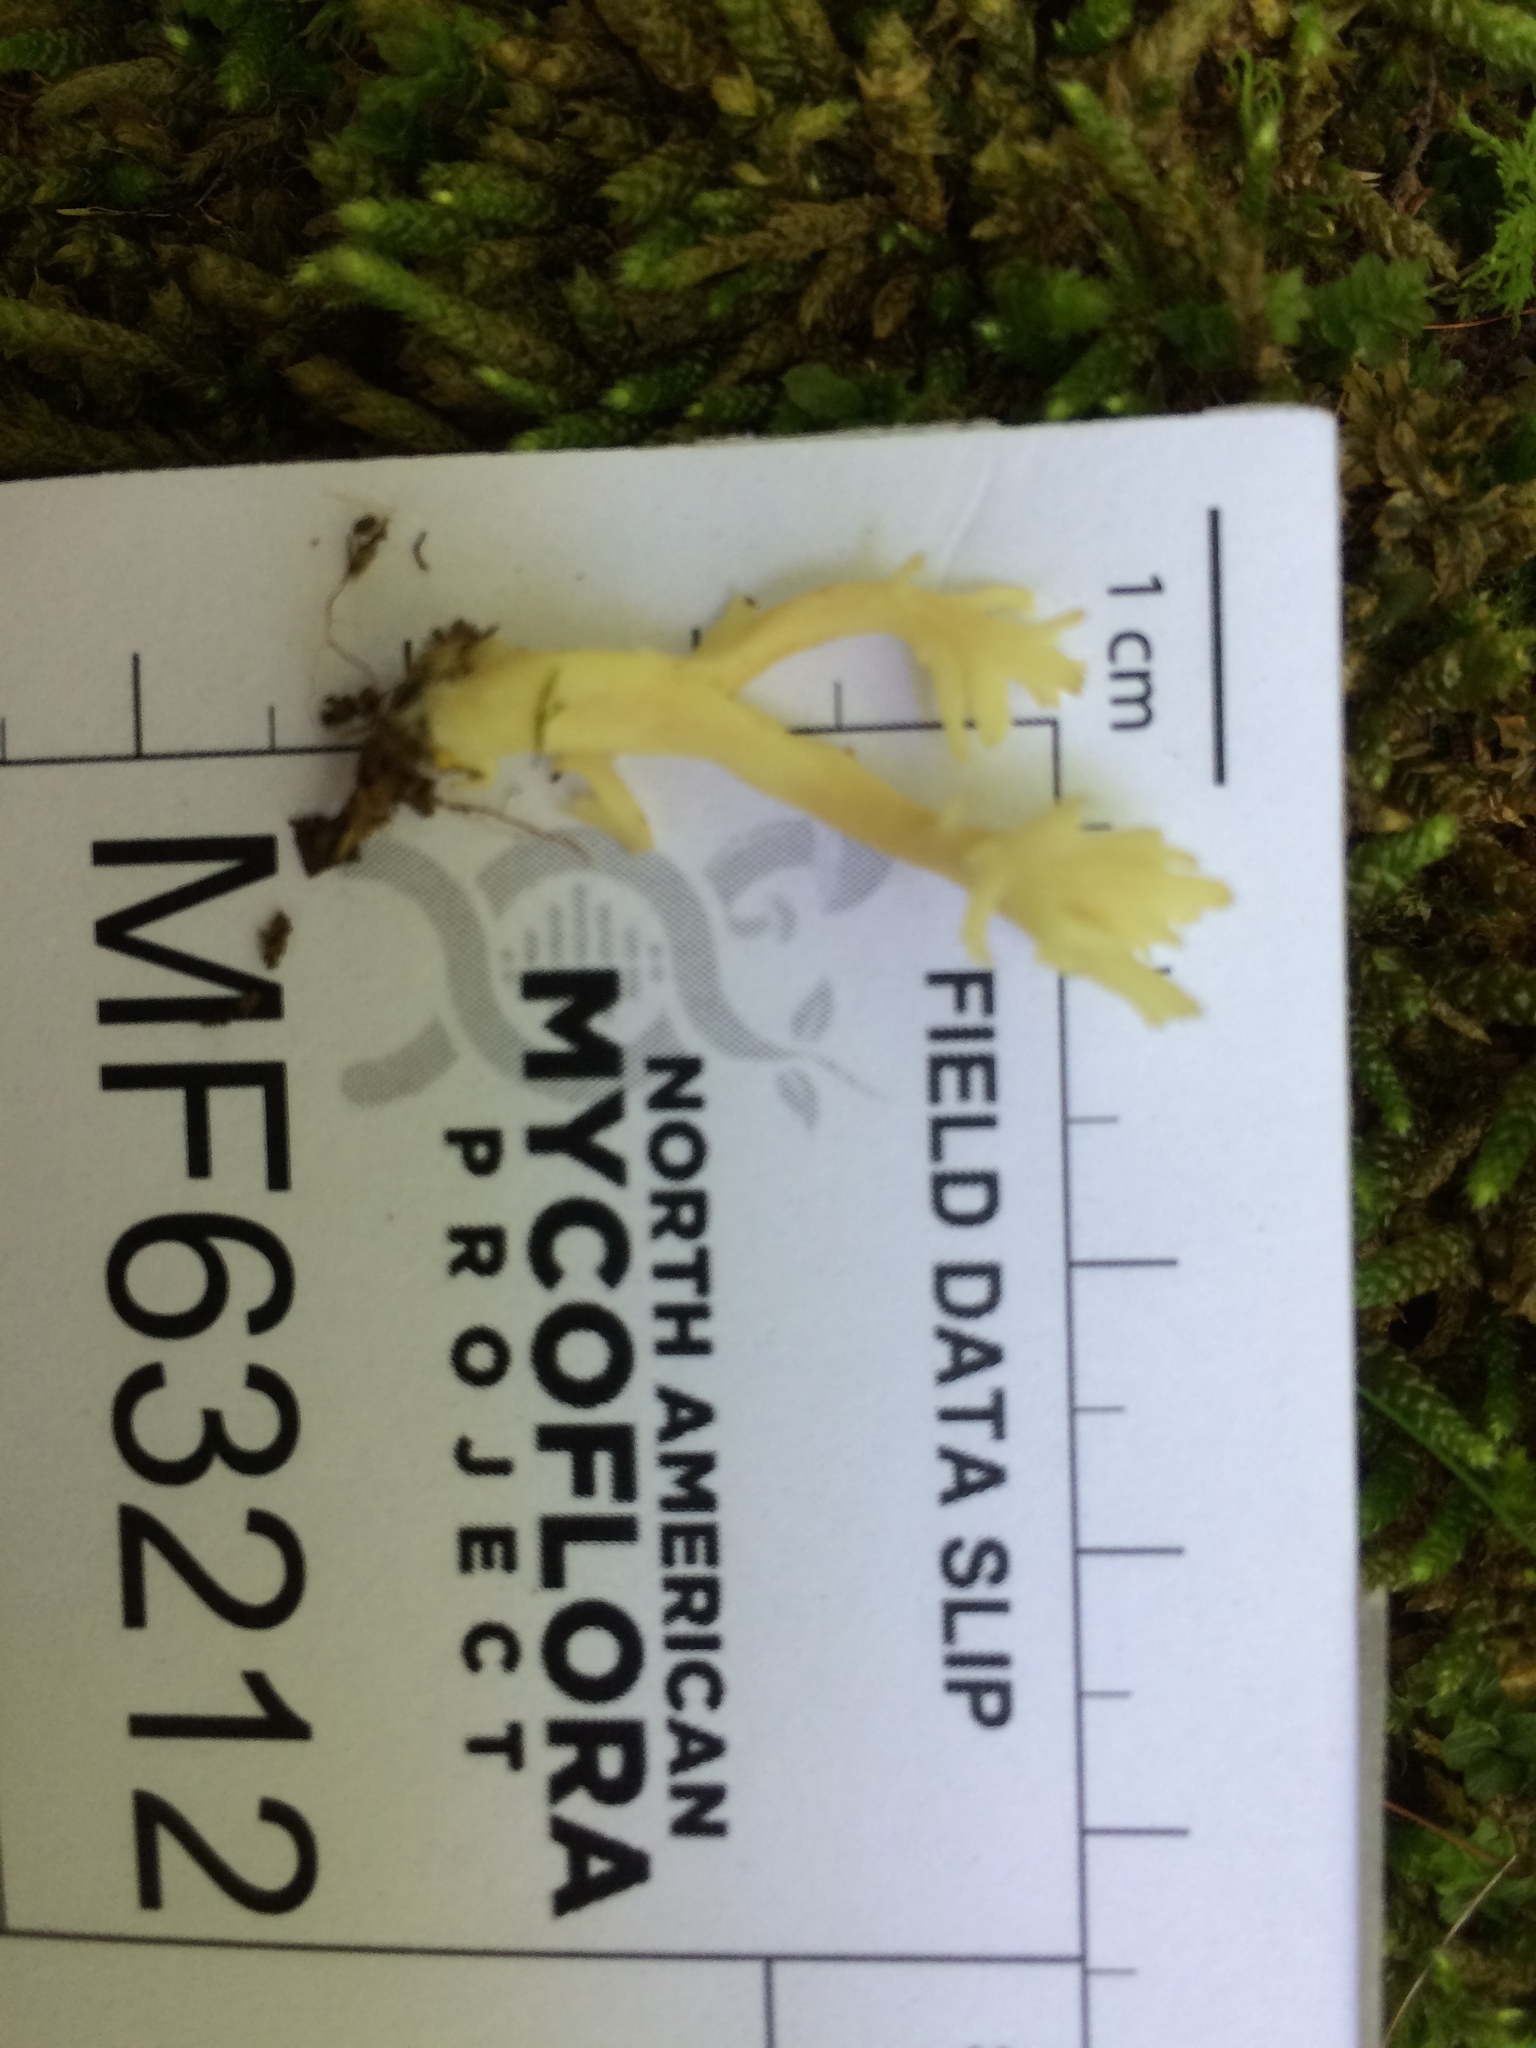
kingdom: Fungi
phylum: Basidiomycota
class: Agaricomycetes
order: Cantharellales
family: Hydnaceae
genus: Clavulina
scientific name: Clavulina coralloides
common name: Crested coral
